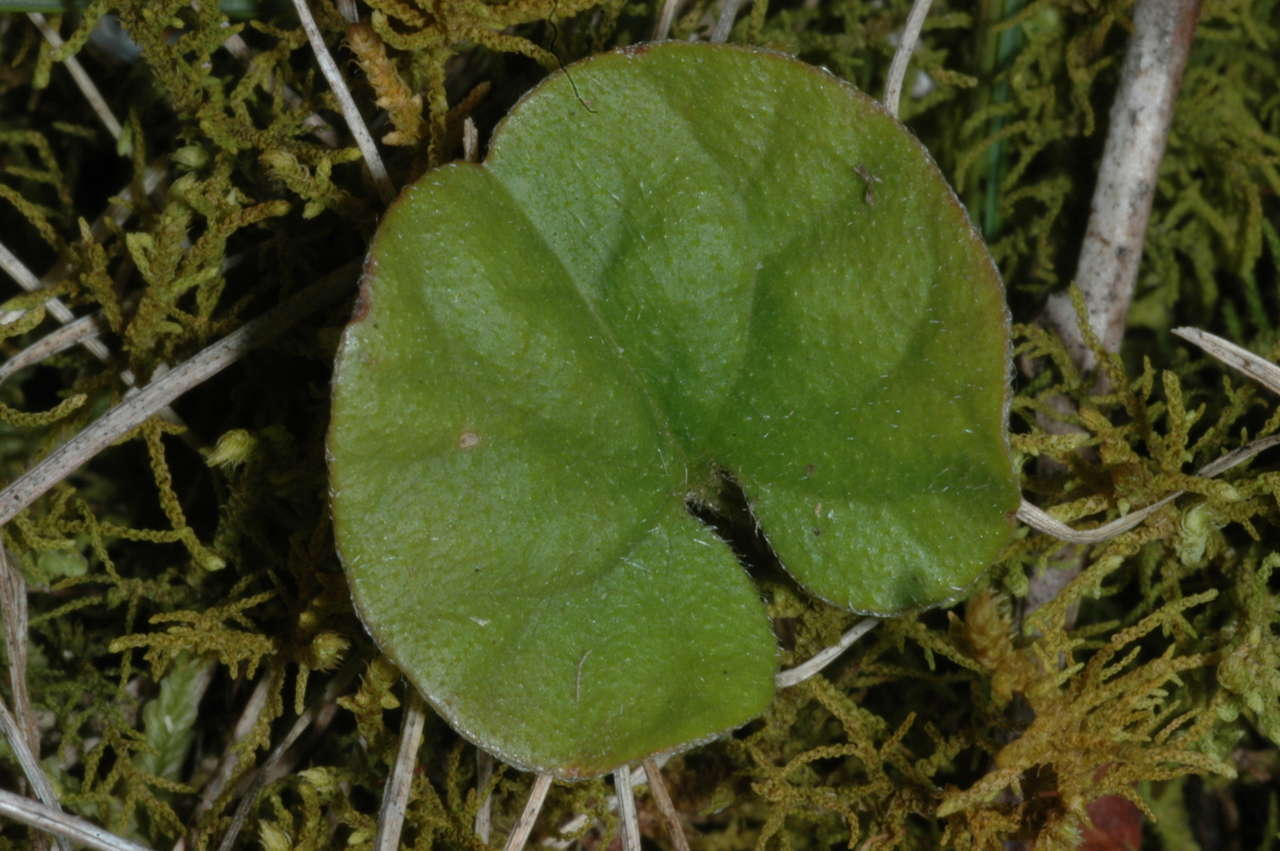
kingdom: Plantae
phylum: Tracheophyta
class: Magnoliopsida
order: Solanales
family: Convolvulaceae
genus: Dichondra
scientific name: Dichondra repens
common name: Kidneyweed
